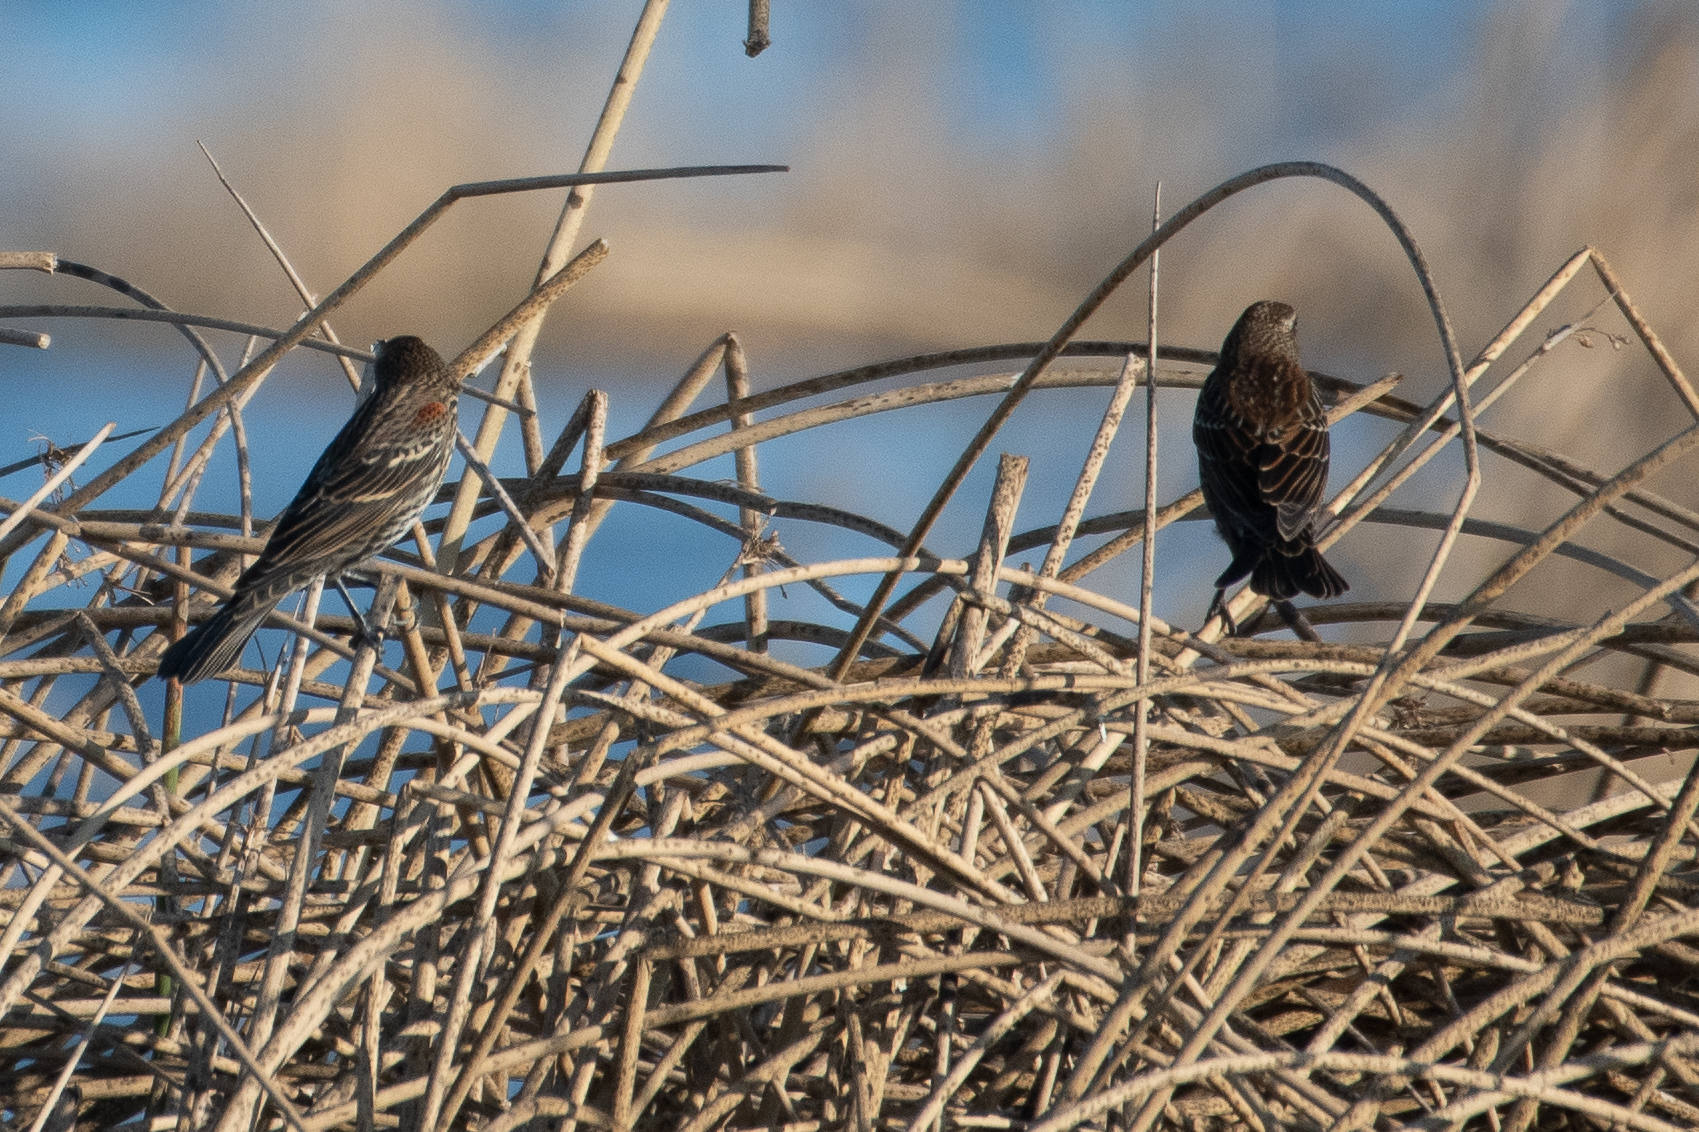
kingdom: Animalia
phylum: Chordata
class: Aves
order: Passeriformes
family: Icteridae
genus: Agelaius
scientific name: Agelaius phoeniceus
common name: Red-winged blackbird
